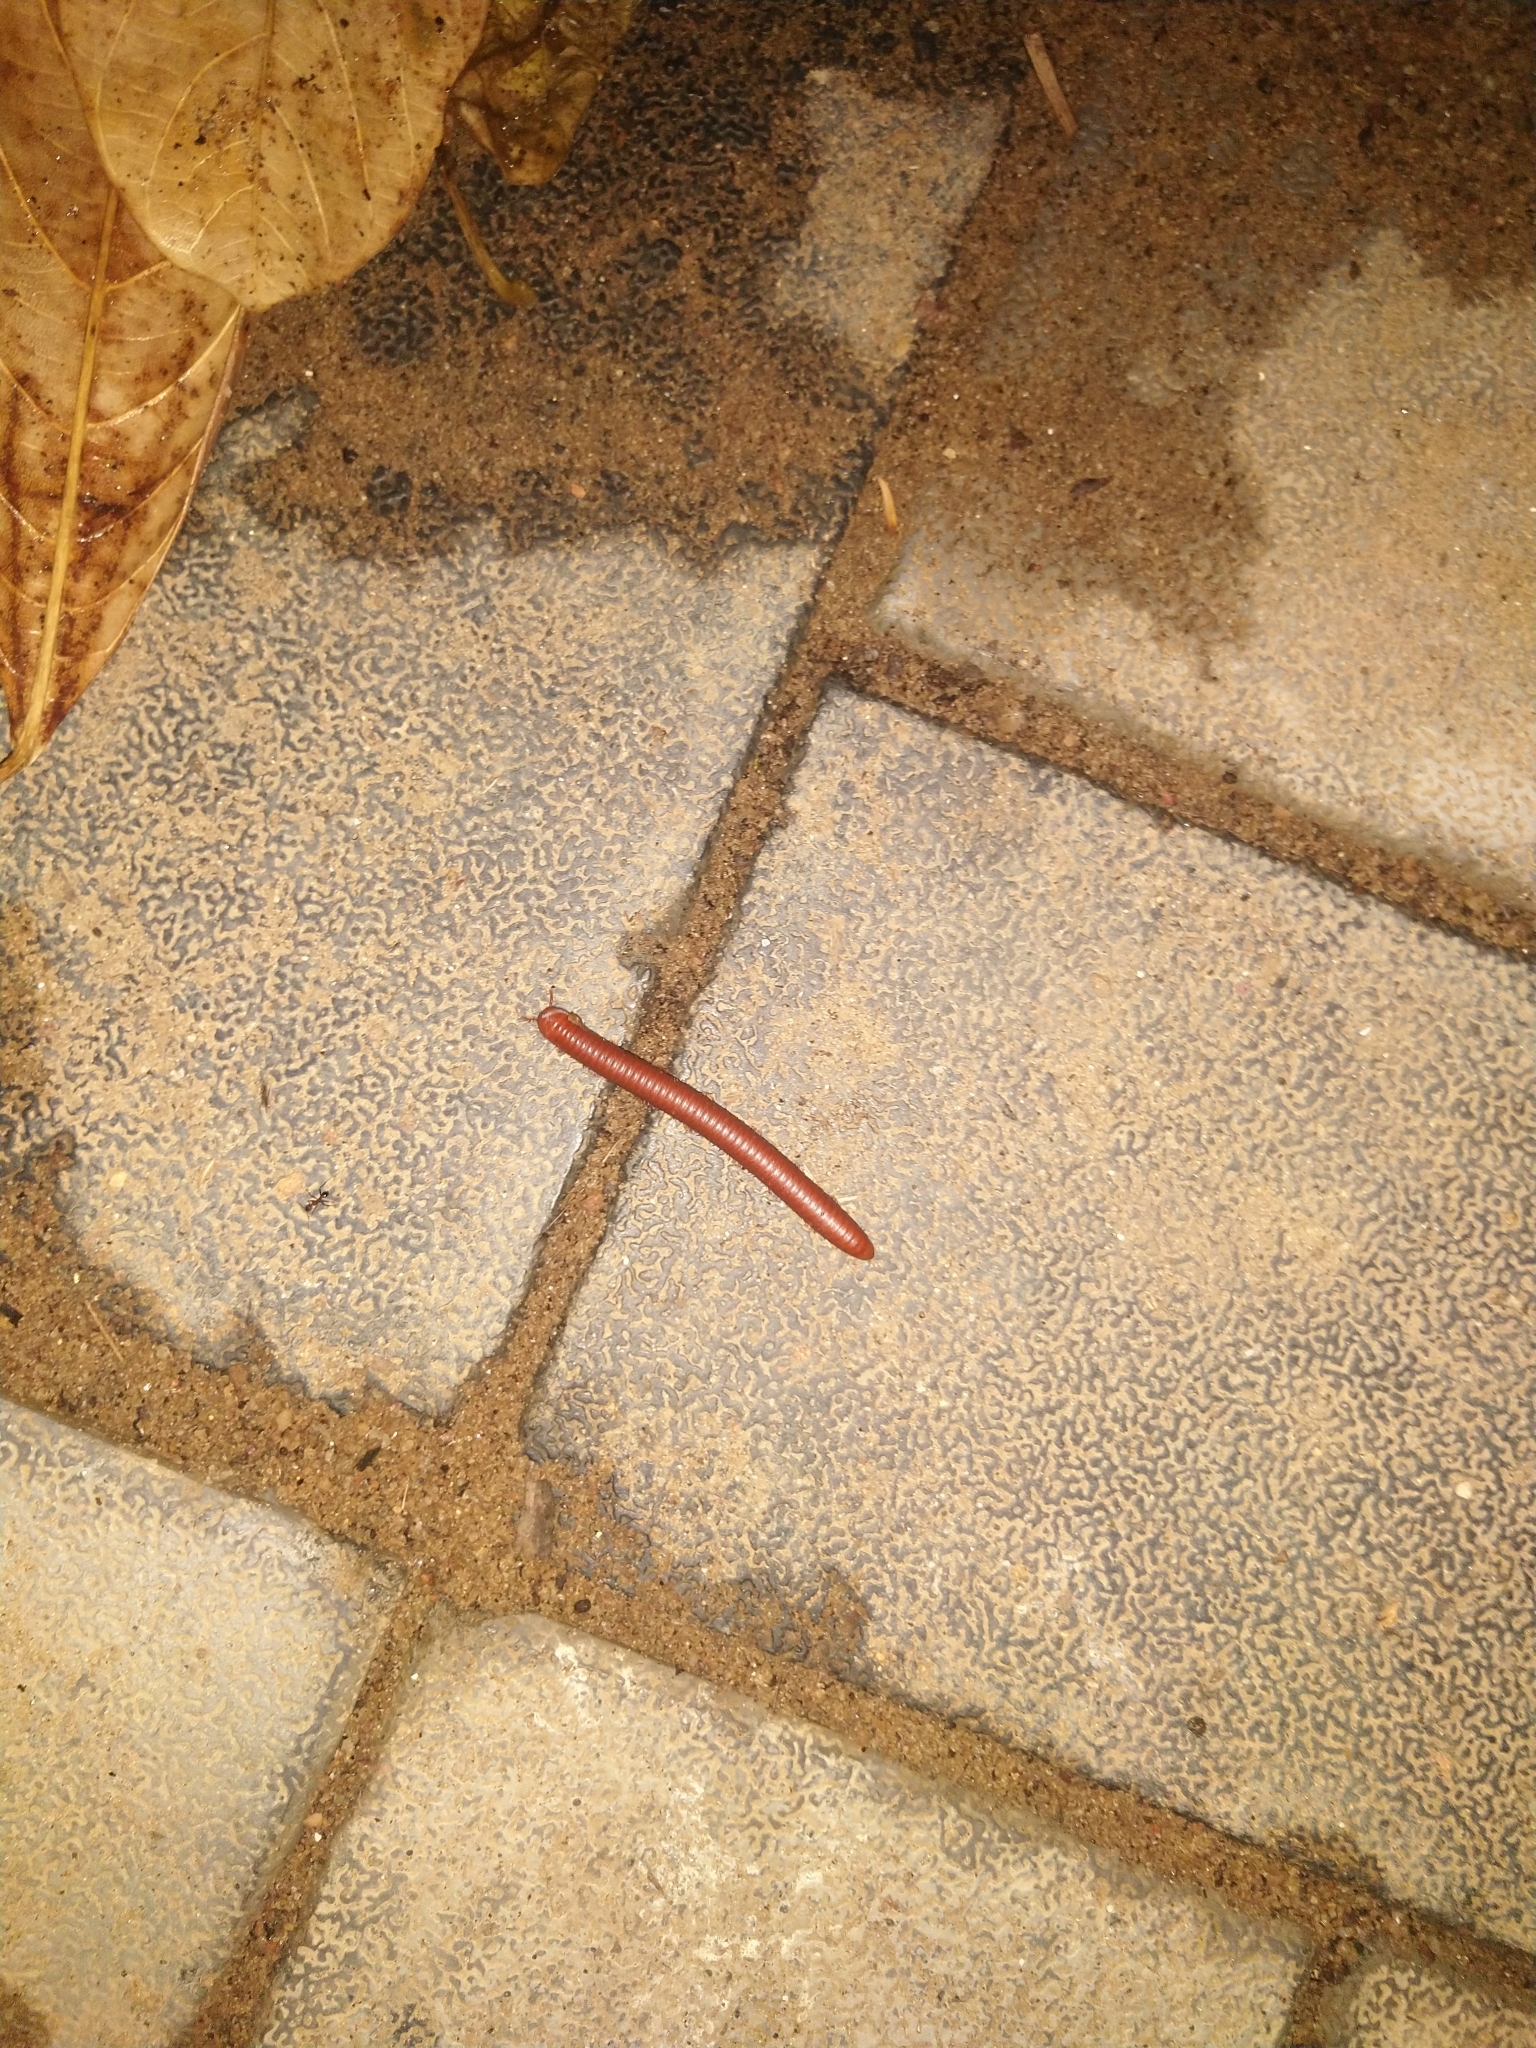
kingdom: Animalia
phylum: Arthropoda
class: Diplopoda
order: Spirobolida
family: Pachybolidae
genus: Trigoniulus
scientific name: Trigoniulus corallinus
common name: Millipede
